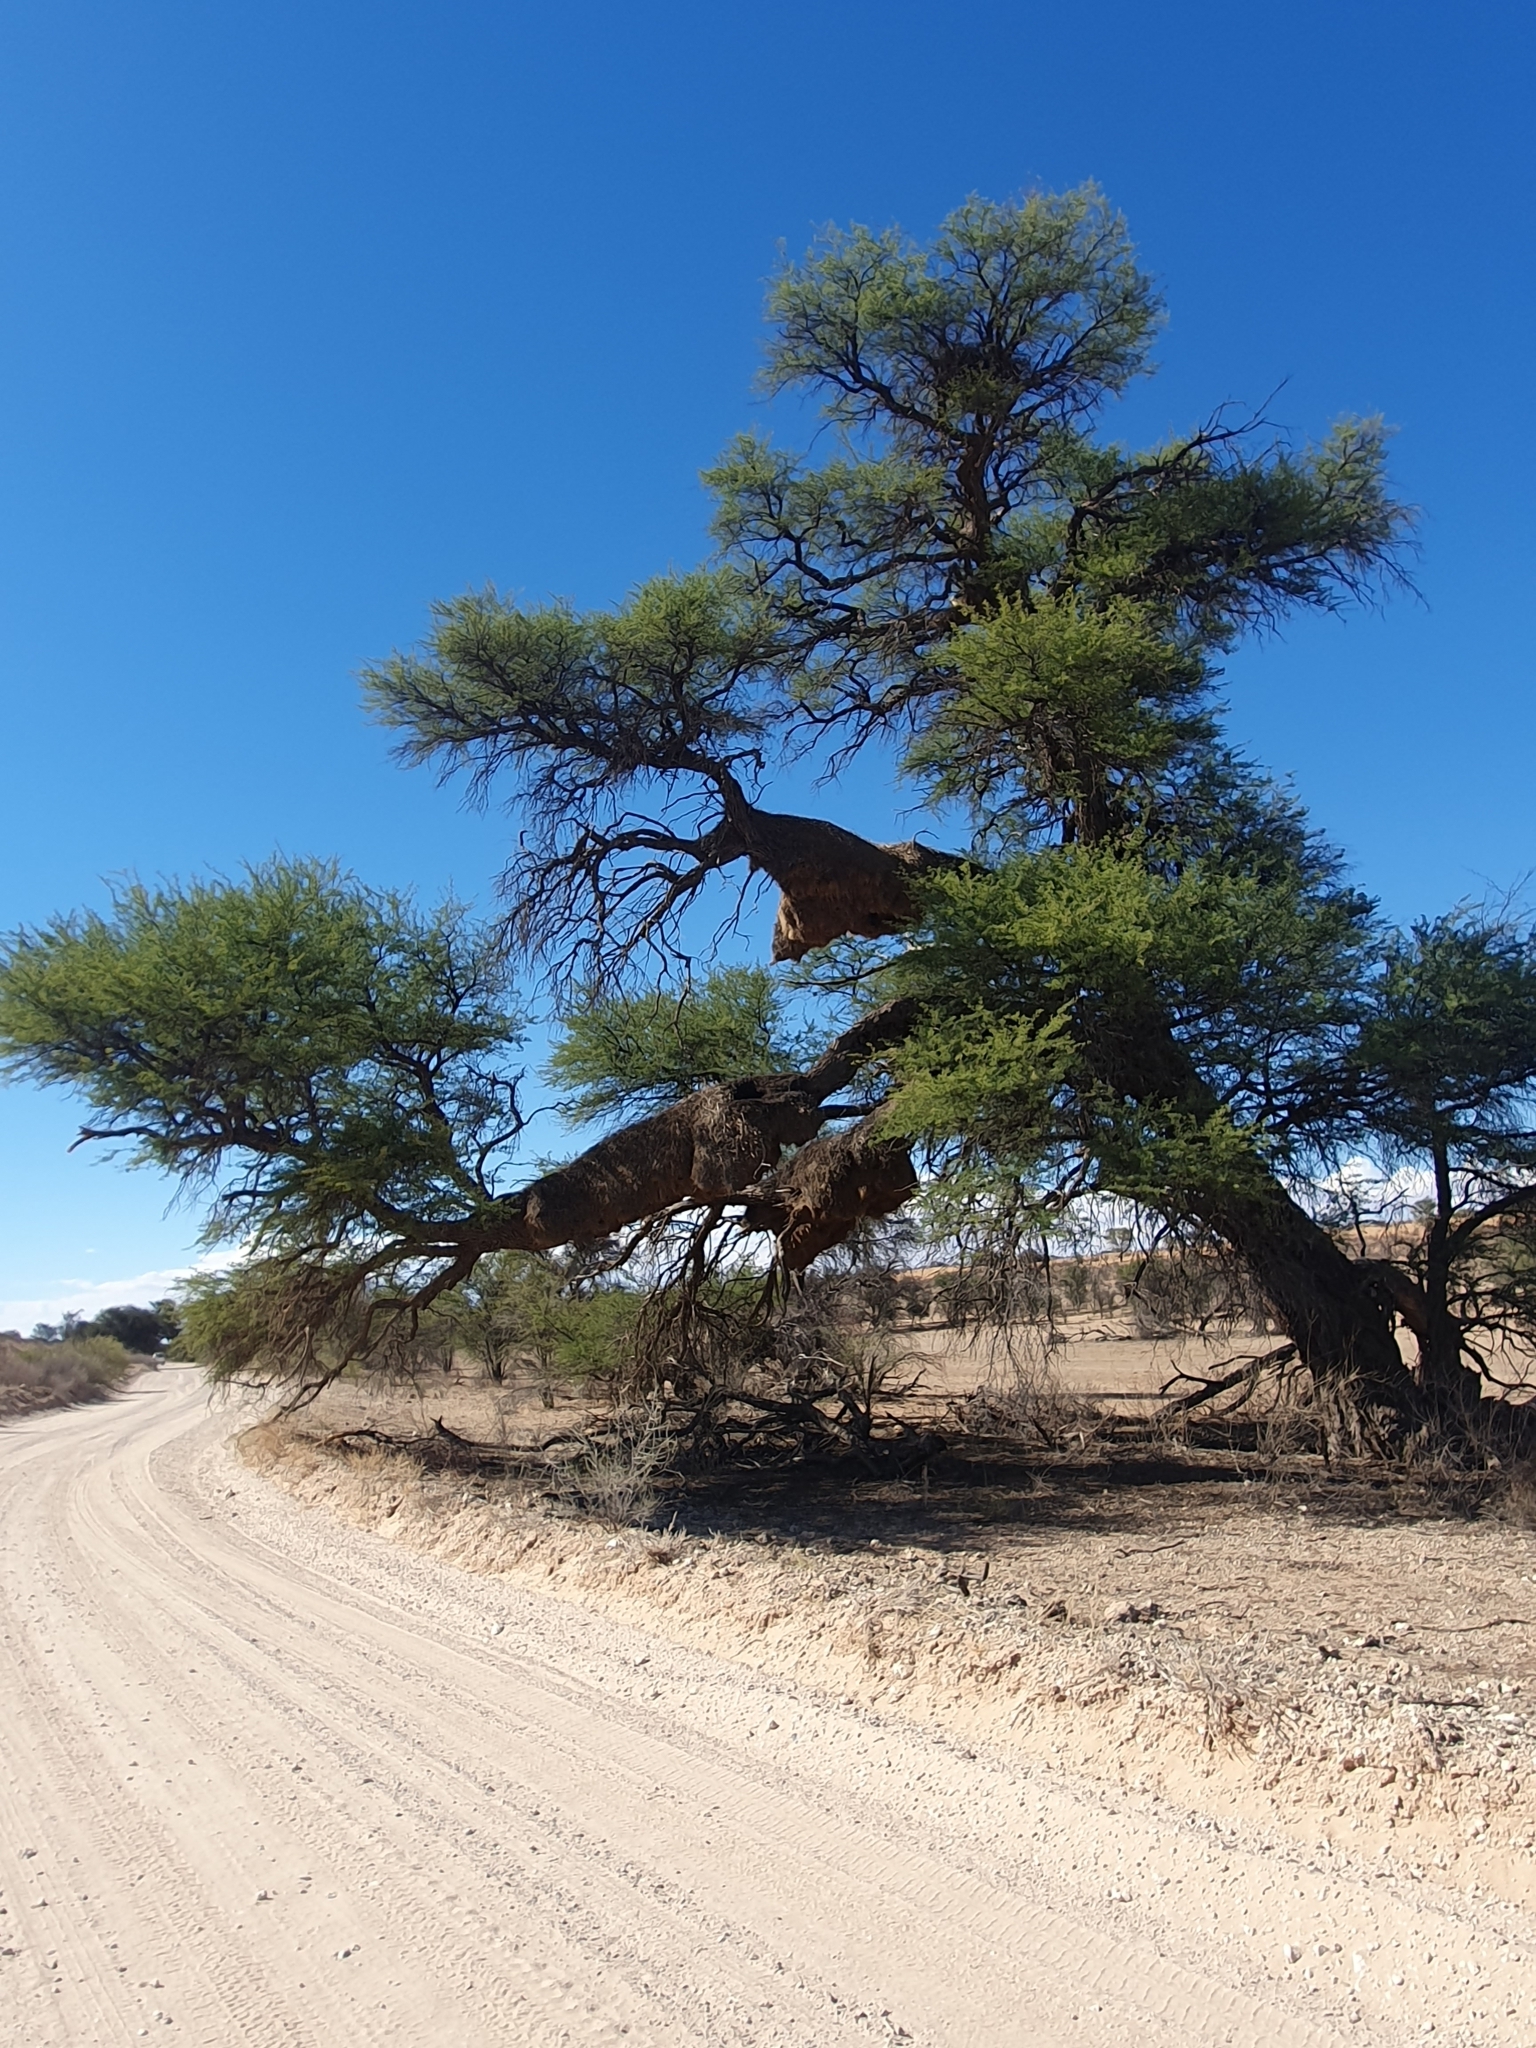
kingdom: Plantae
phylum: Tracheophyta
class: Magnoliopsida
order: Fabales
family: Fabaceae
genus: Vachellia
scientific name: Vachellia erioloba
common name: Camel thorn
